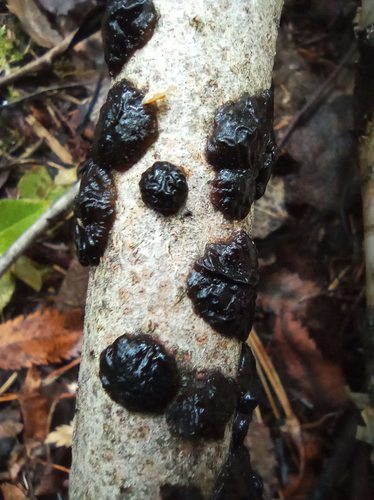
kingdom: Fungi
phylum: Basidiomycota
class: Agaricomycetes
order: Auriculariales
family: Auriculariaceae
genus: Exidia
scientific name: Exidia glandulosa
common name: Witches' butter
